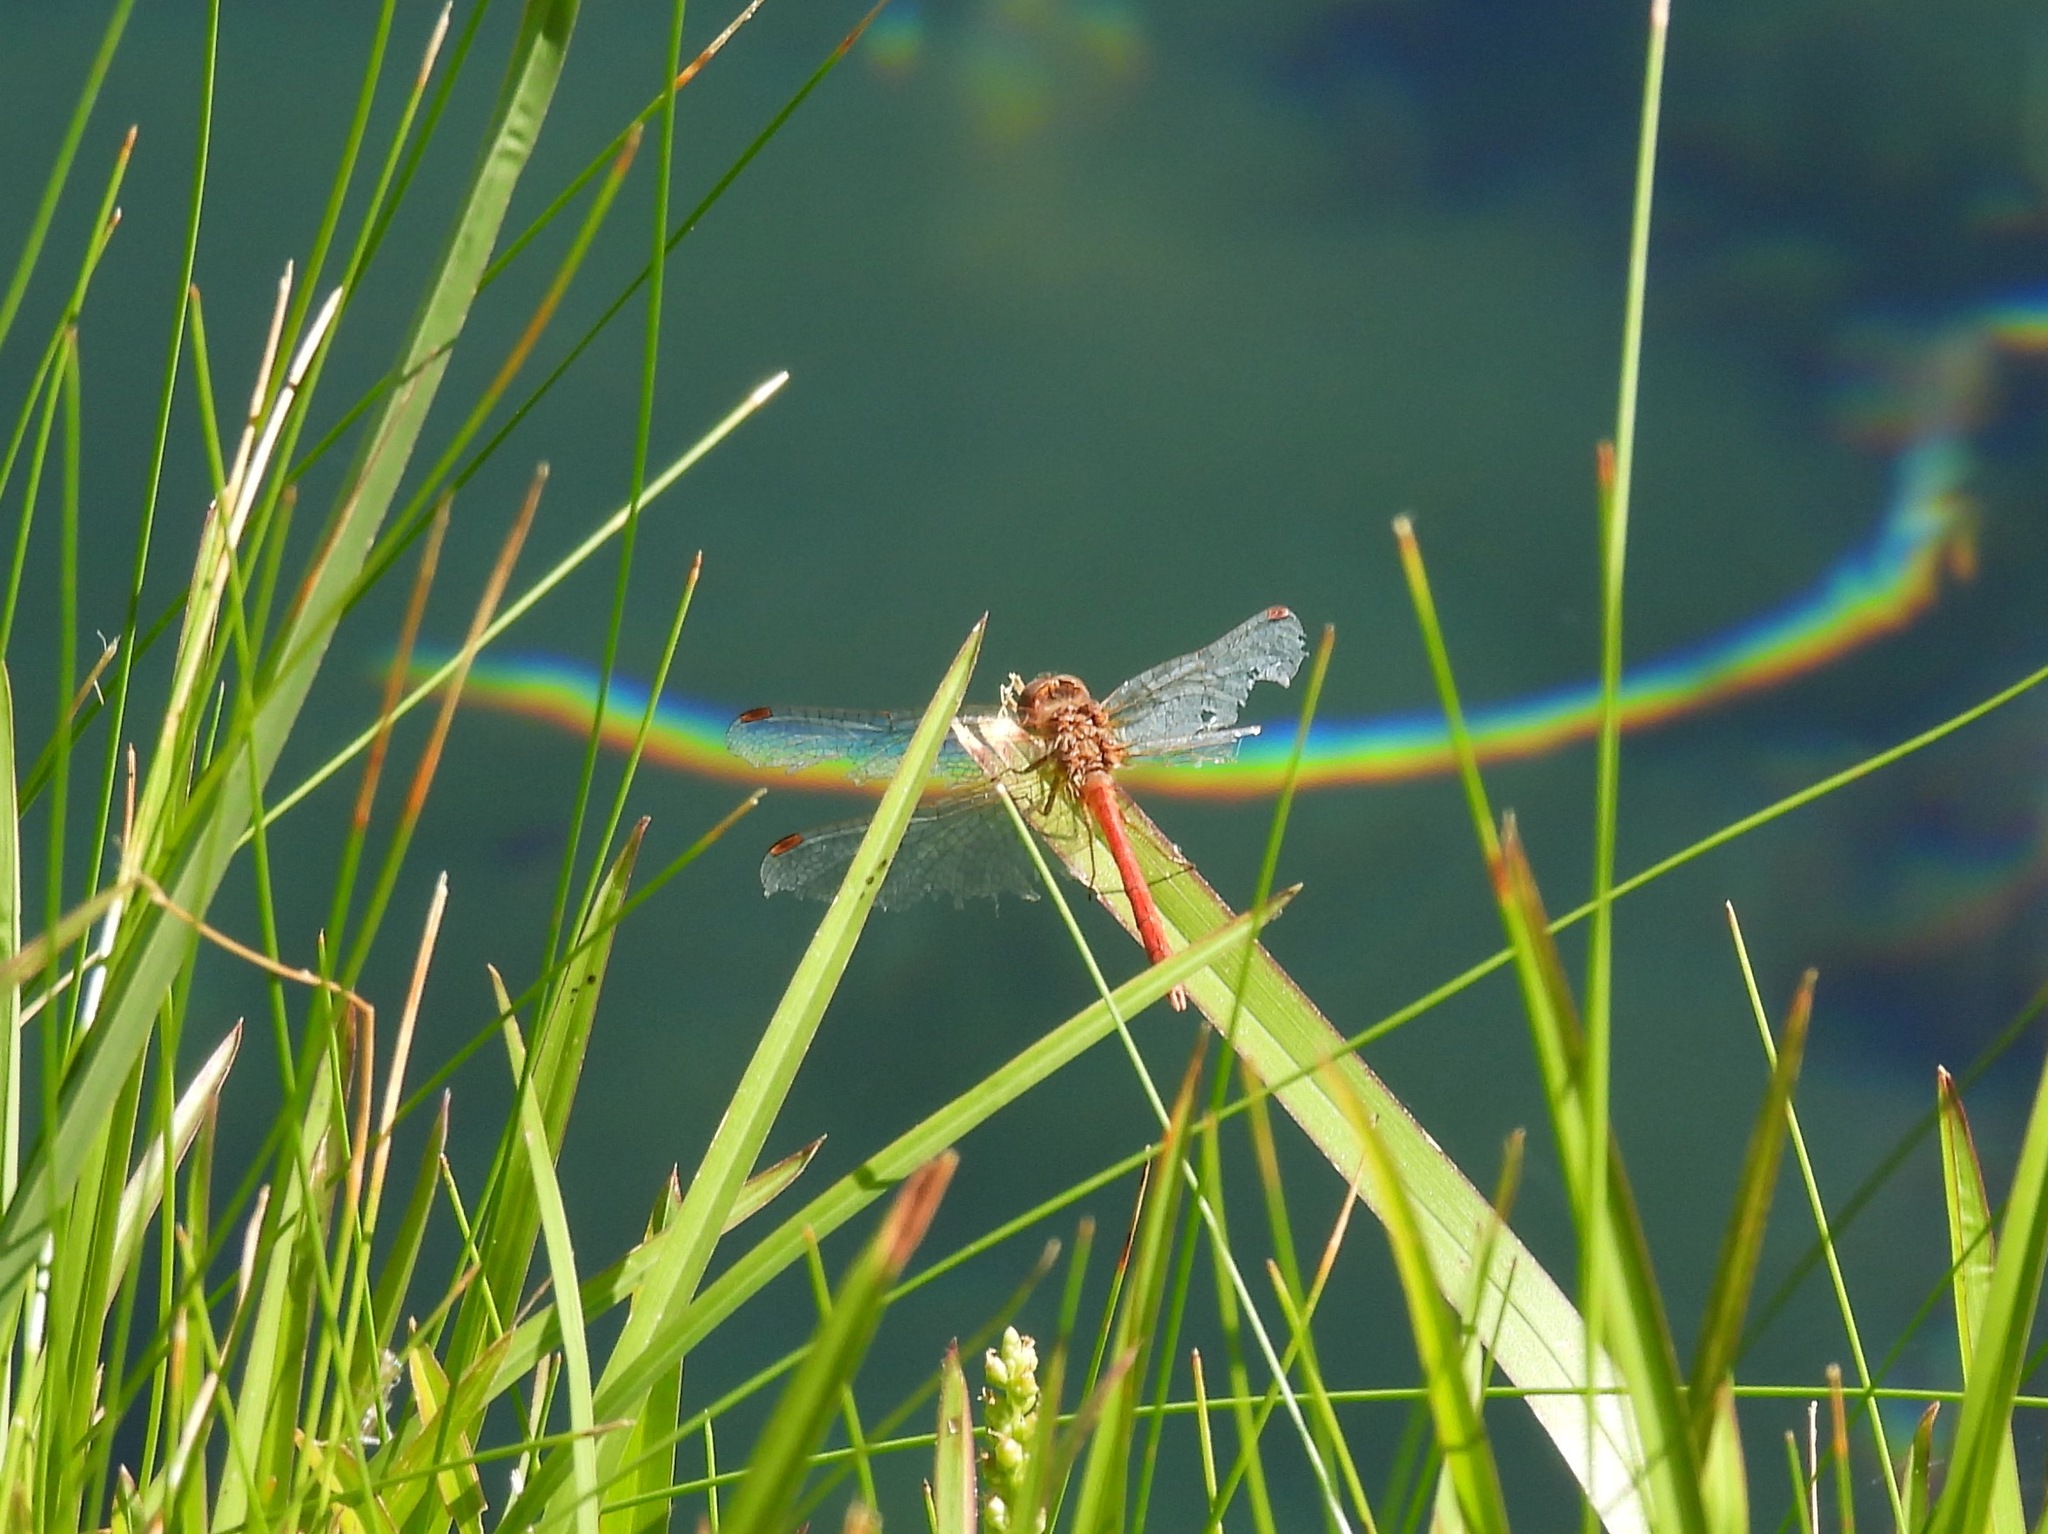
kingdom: Animalia
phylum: Arthropoda
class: Insecta
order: Odonata
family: Libellulidae
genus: Sympetrum
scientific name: Sympetrum vicinum
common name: Autumn meadowhawk
